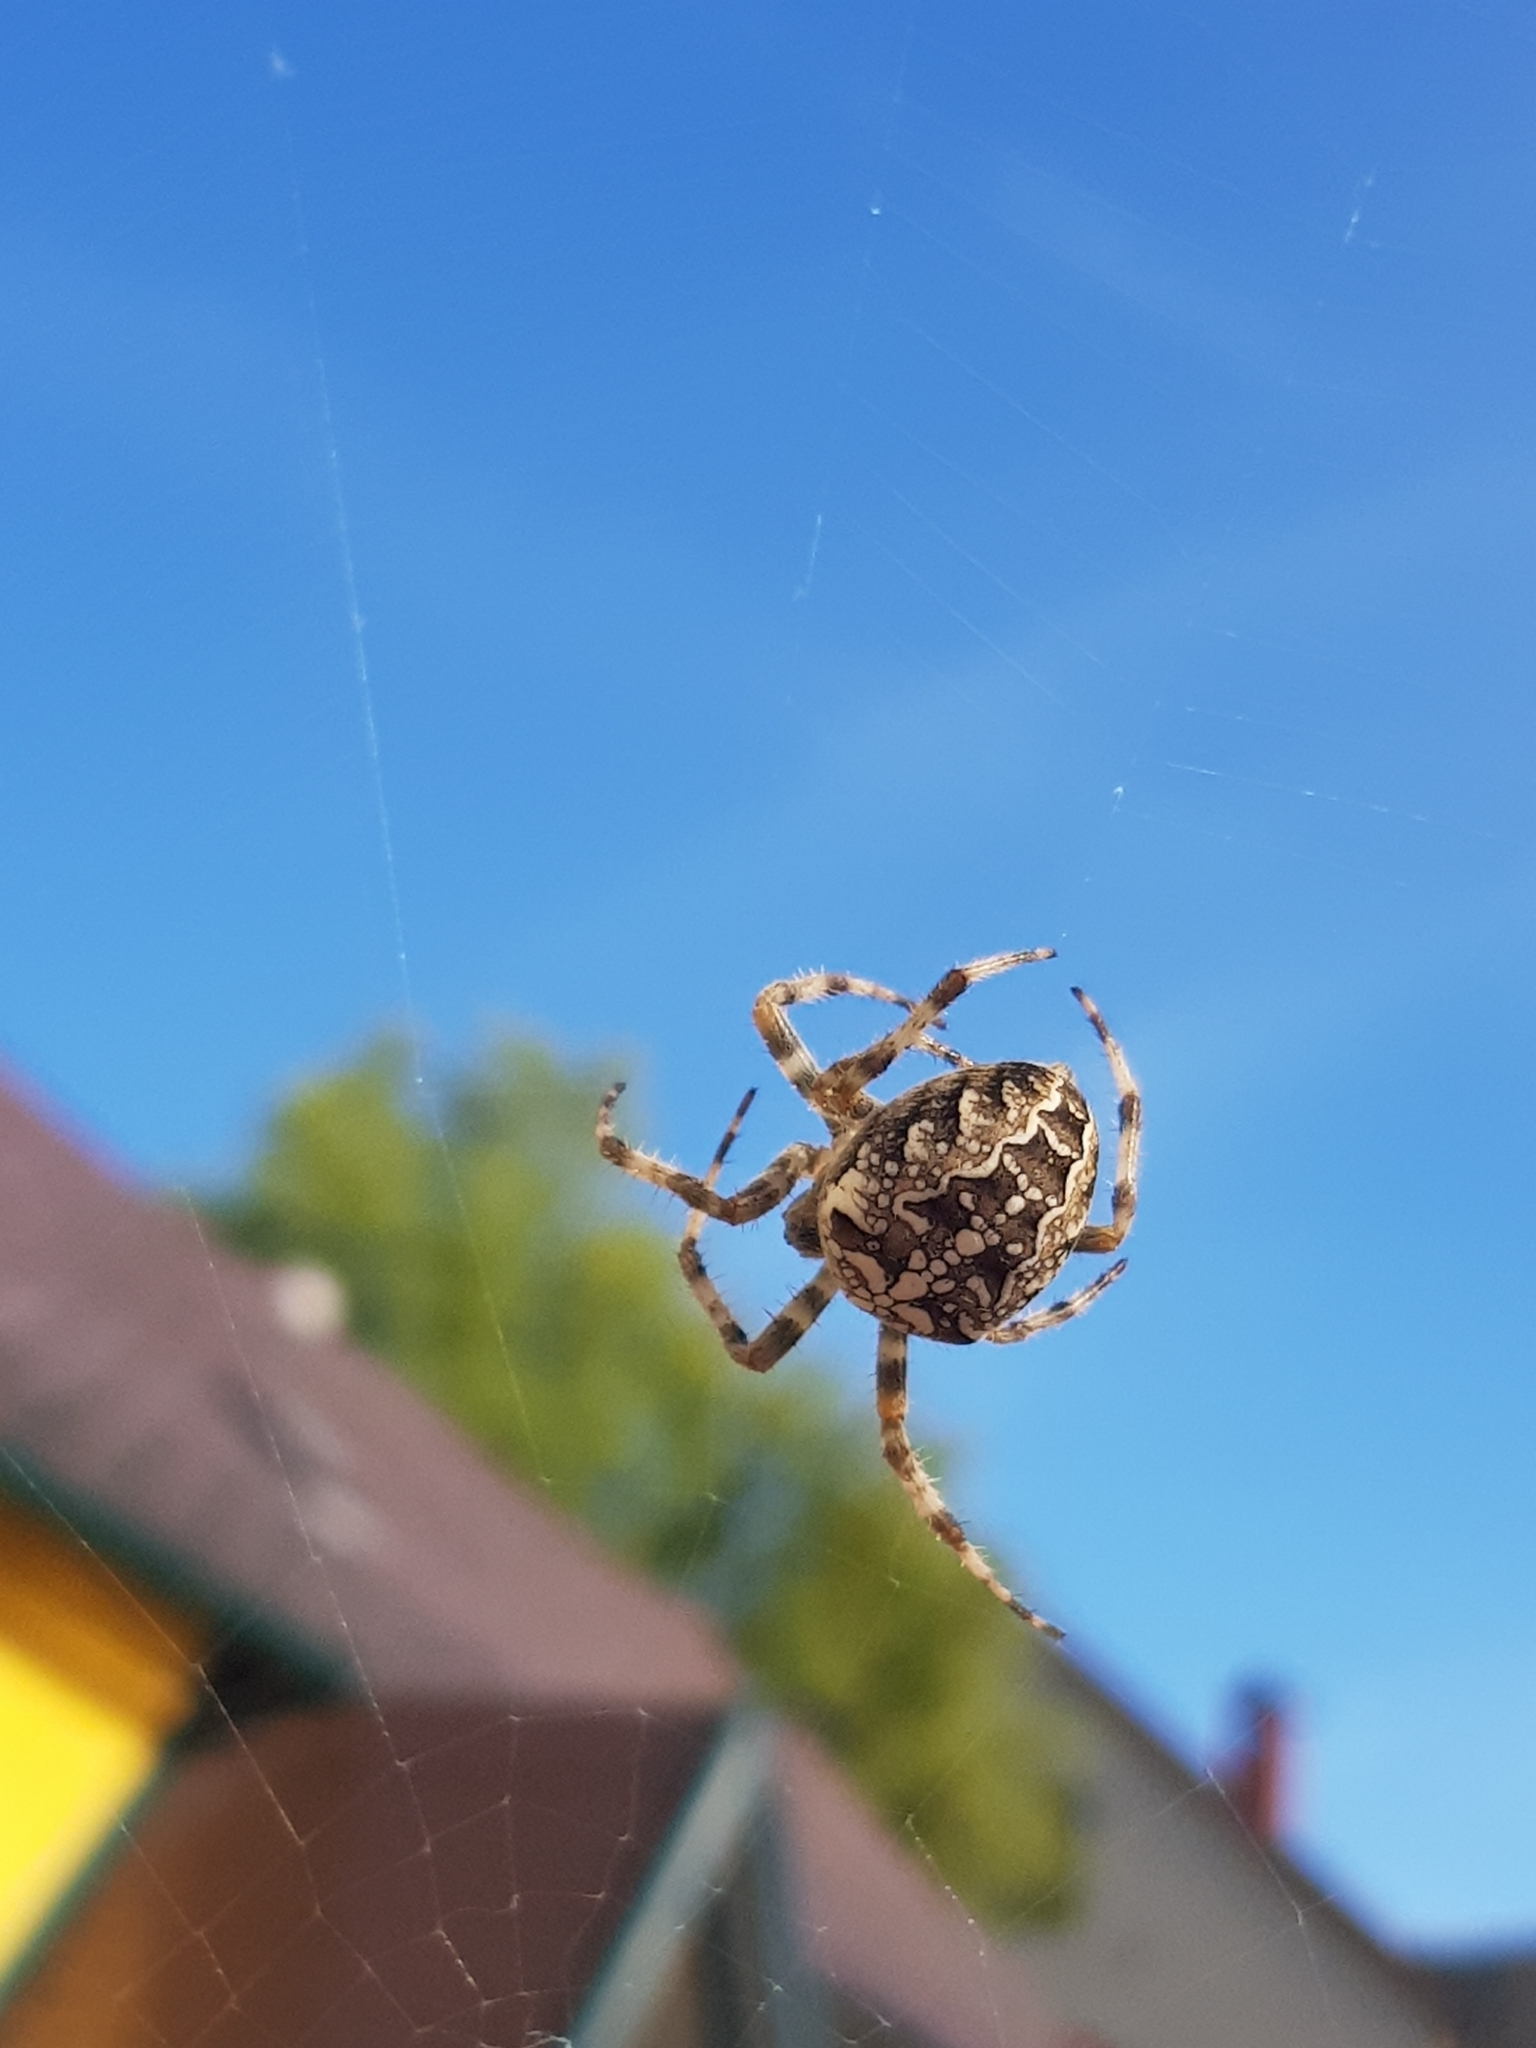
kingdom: Animalia
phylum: Arthropoda
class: Arachnida
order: Araneae
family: Araneidae
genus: Araneus
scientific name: Araneus diadematus
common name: Cross orbweaver
